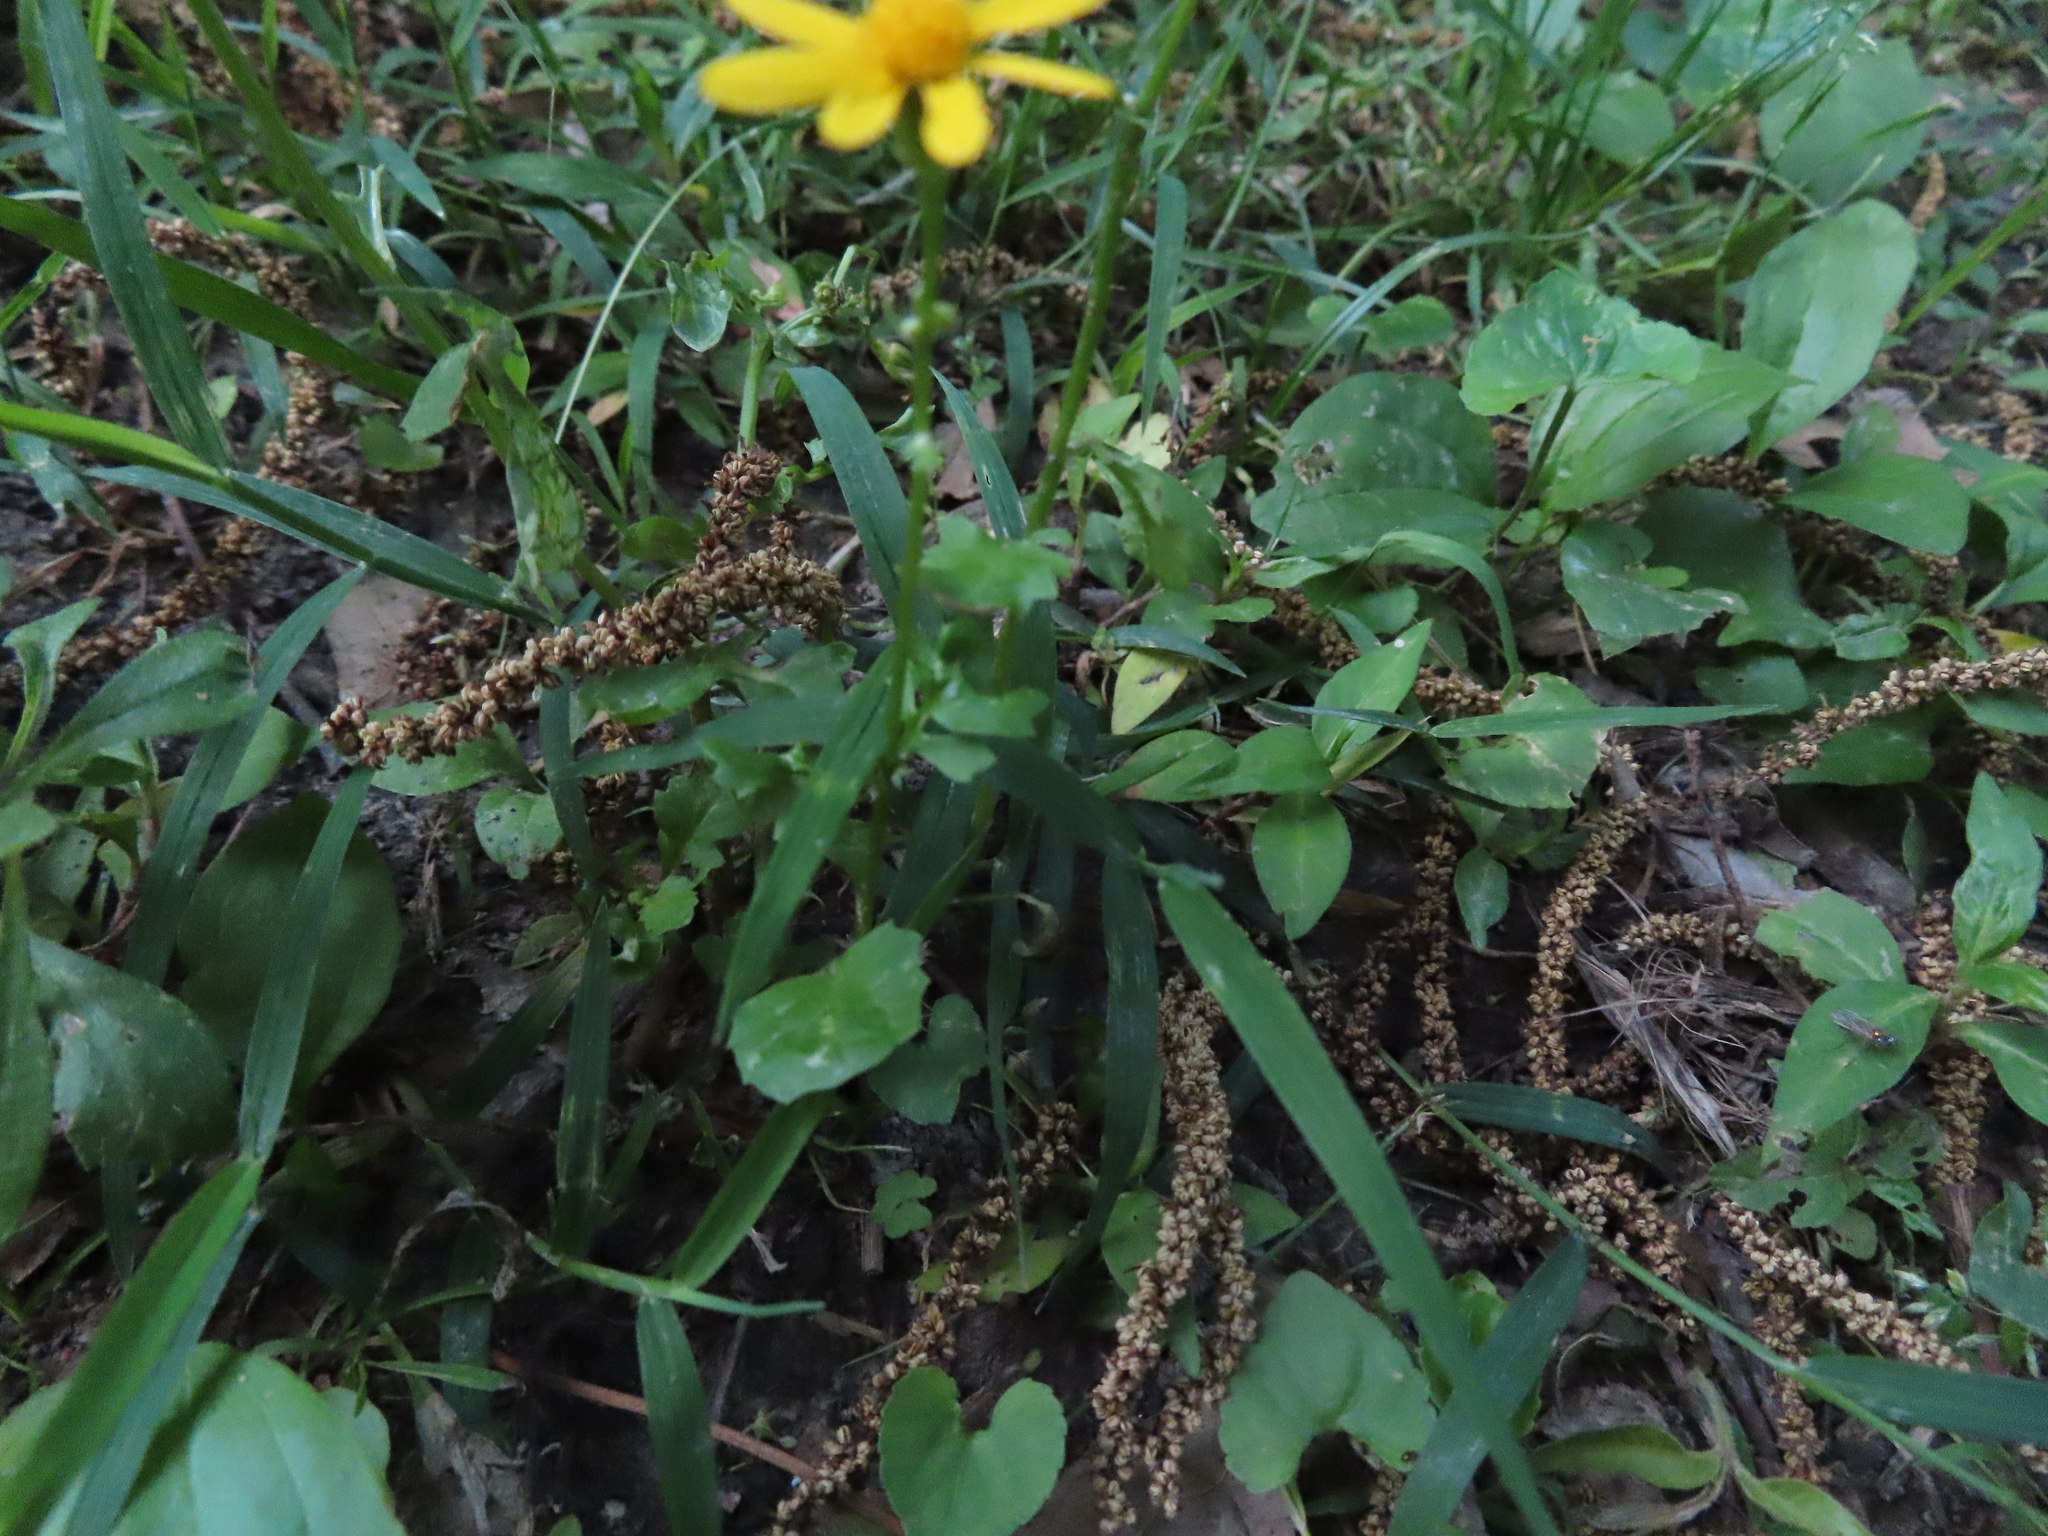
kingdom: Plantae
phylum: Tracheophyta
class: Magnoliopsida
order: Asterales
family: Asteraceae
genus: Packera
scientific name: Packera glabella
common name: Butterweed
